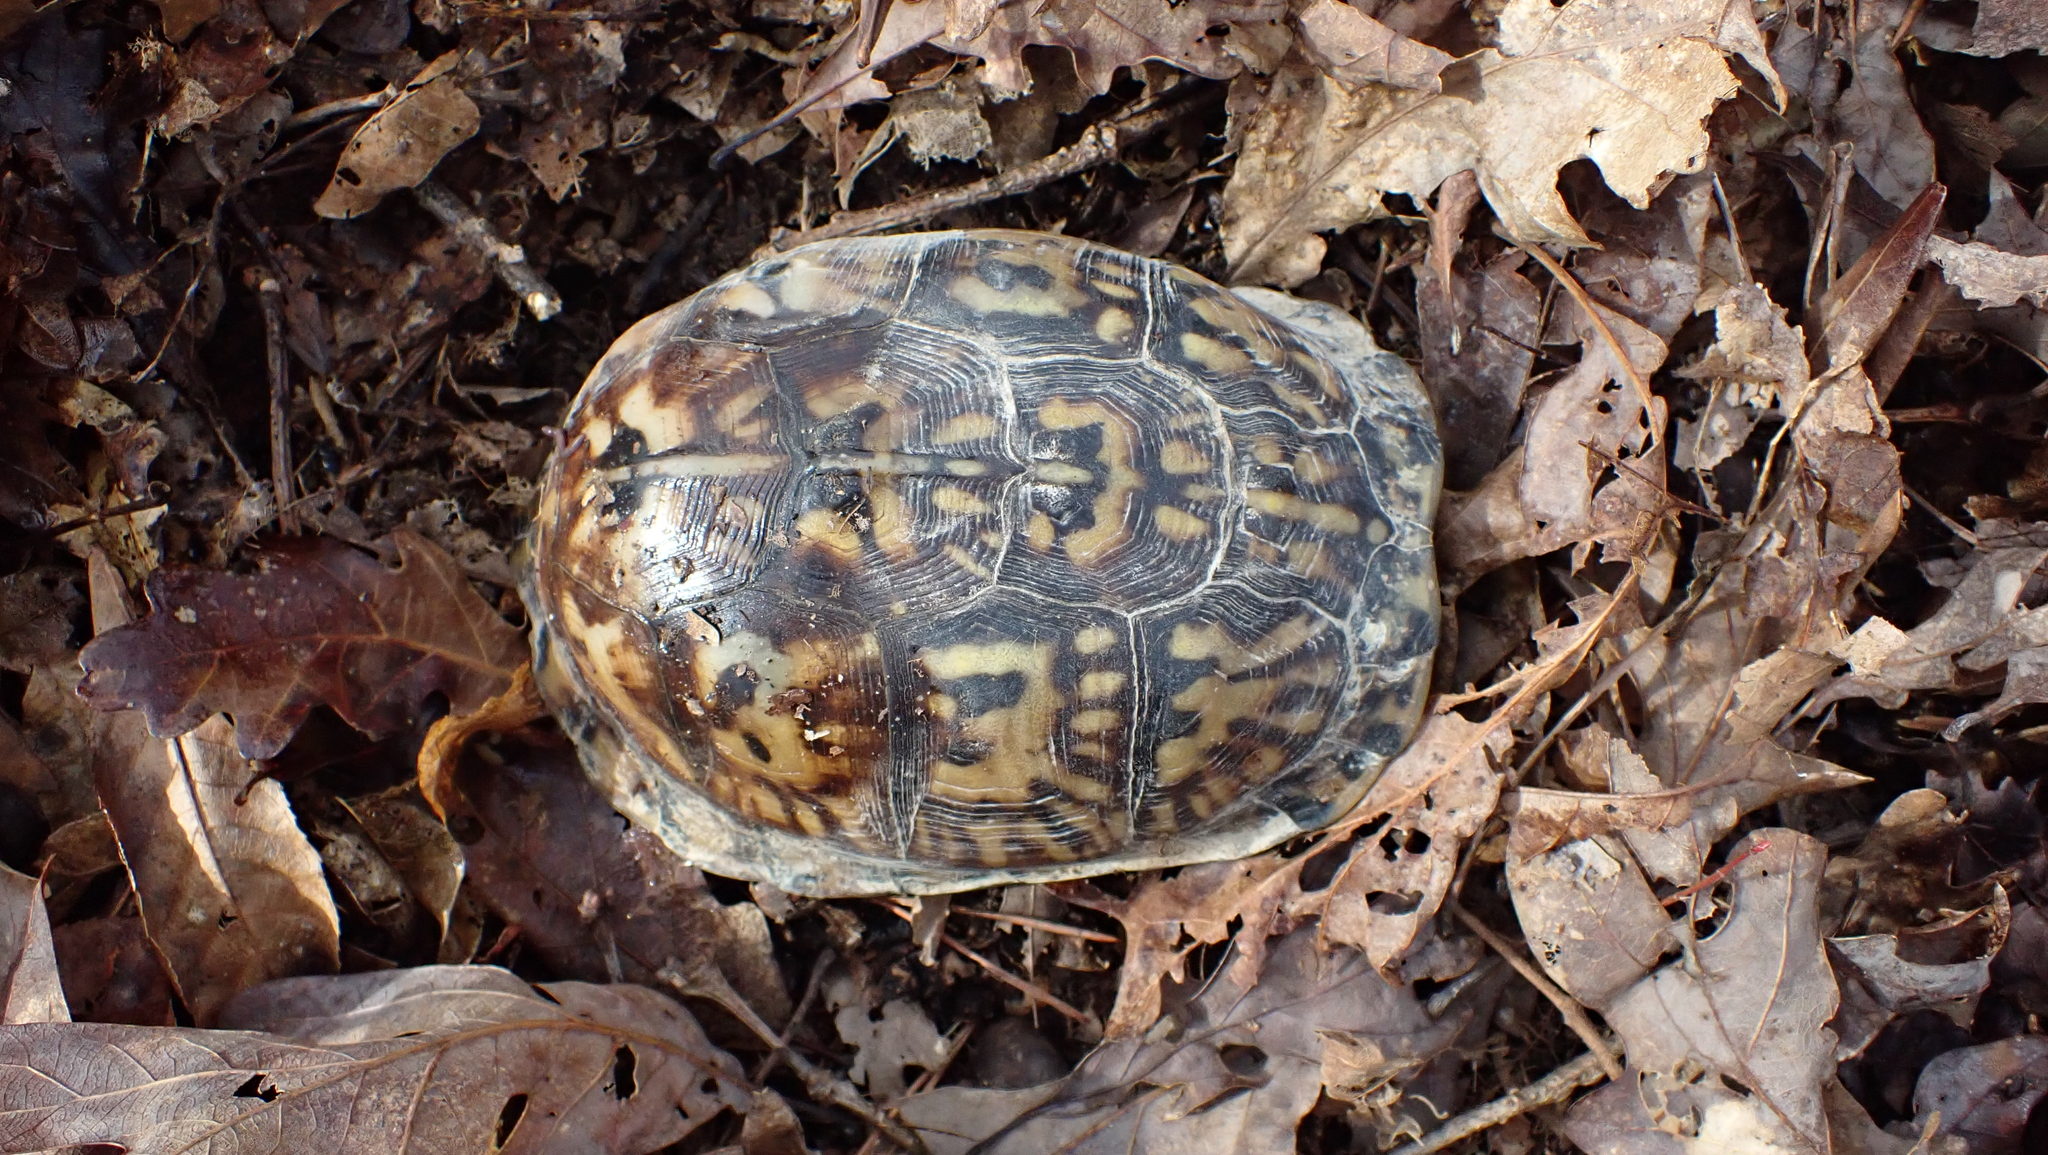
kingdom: Animalia
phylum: Chordata
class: Testudines
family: Emydidae
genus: Terrapene
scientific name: Terrapene carolina
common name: Common box turtle
